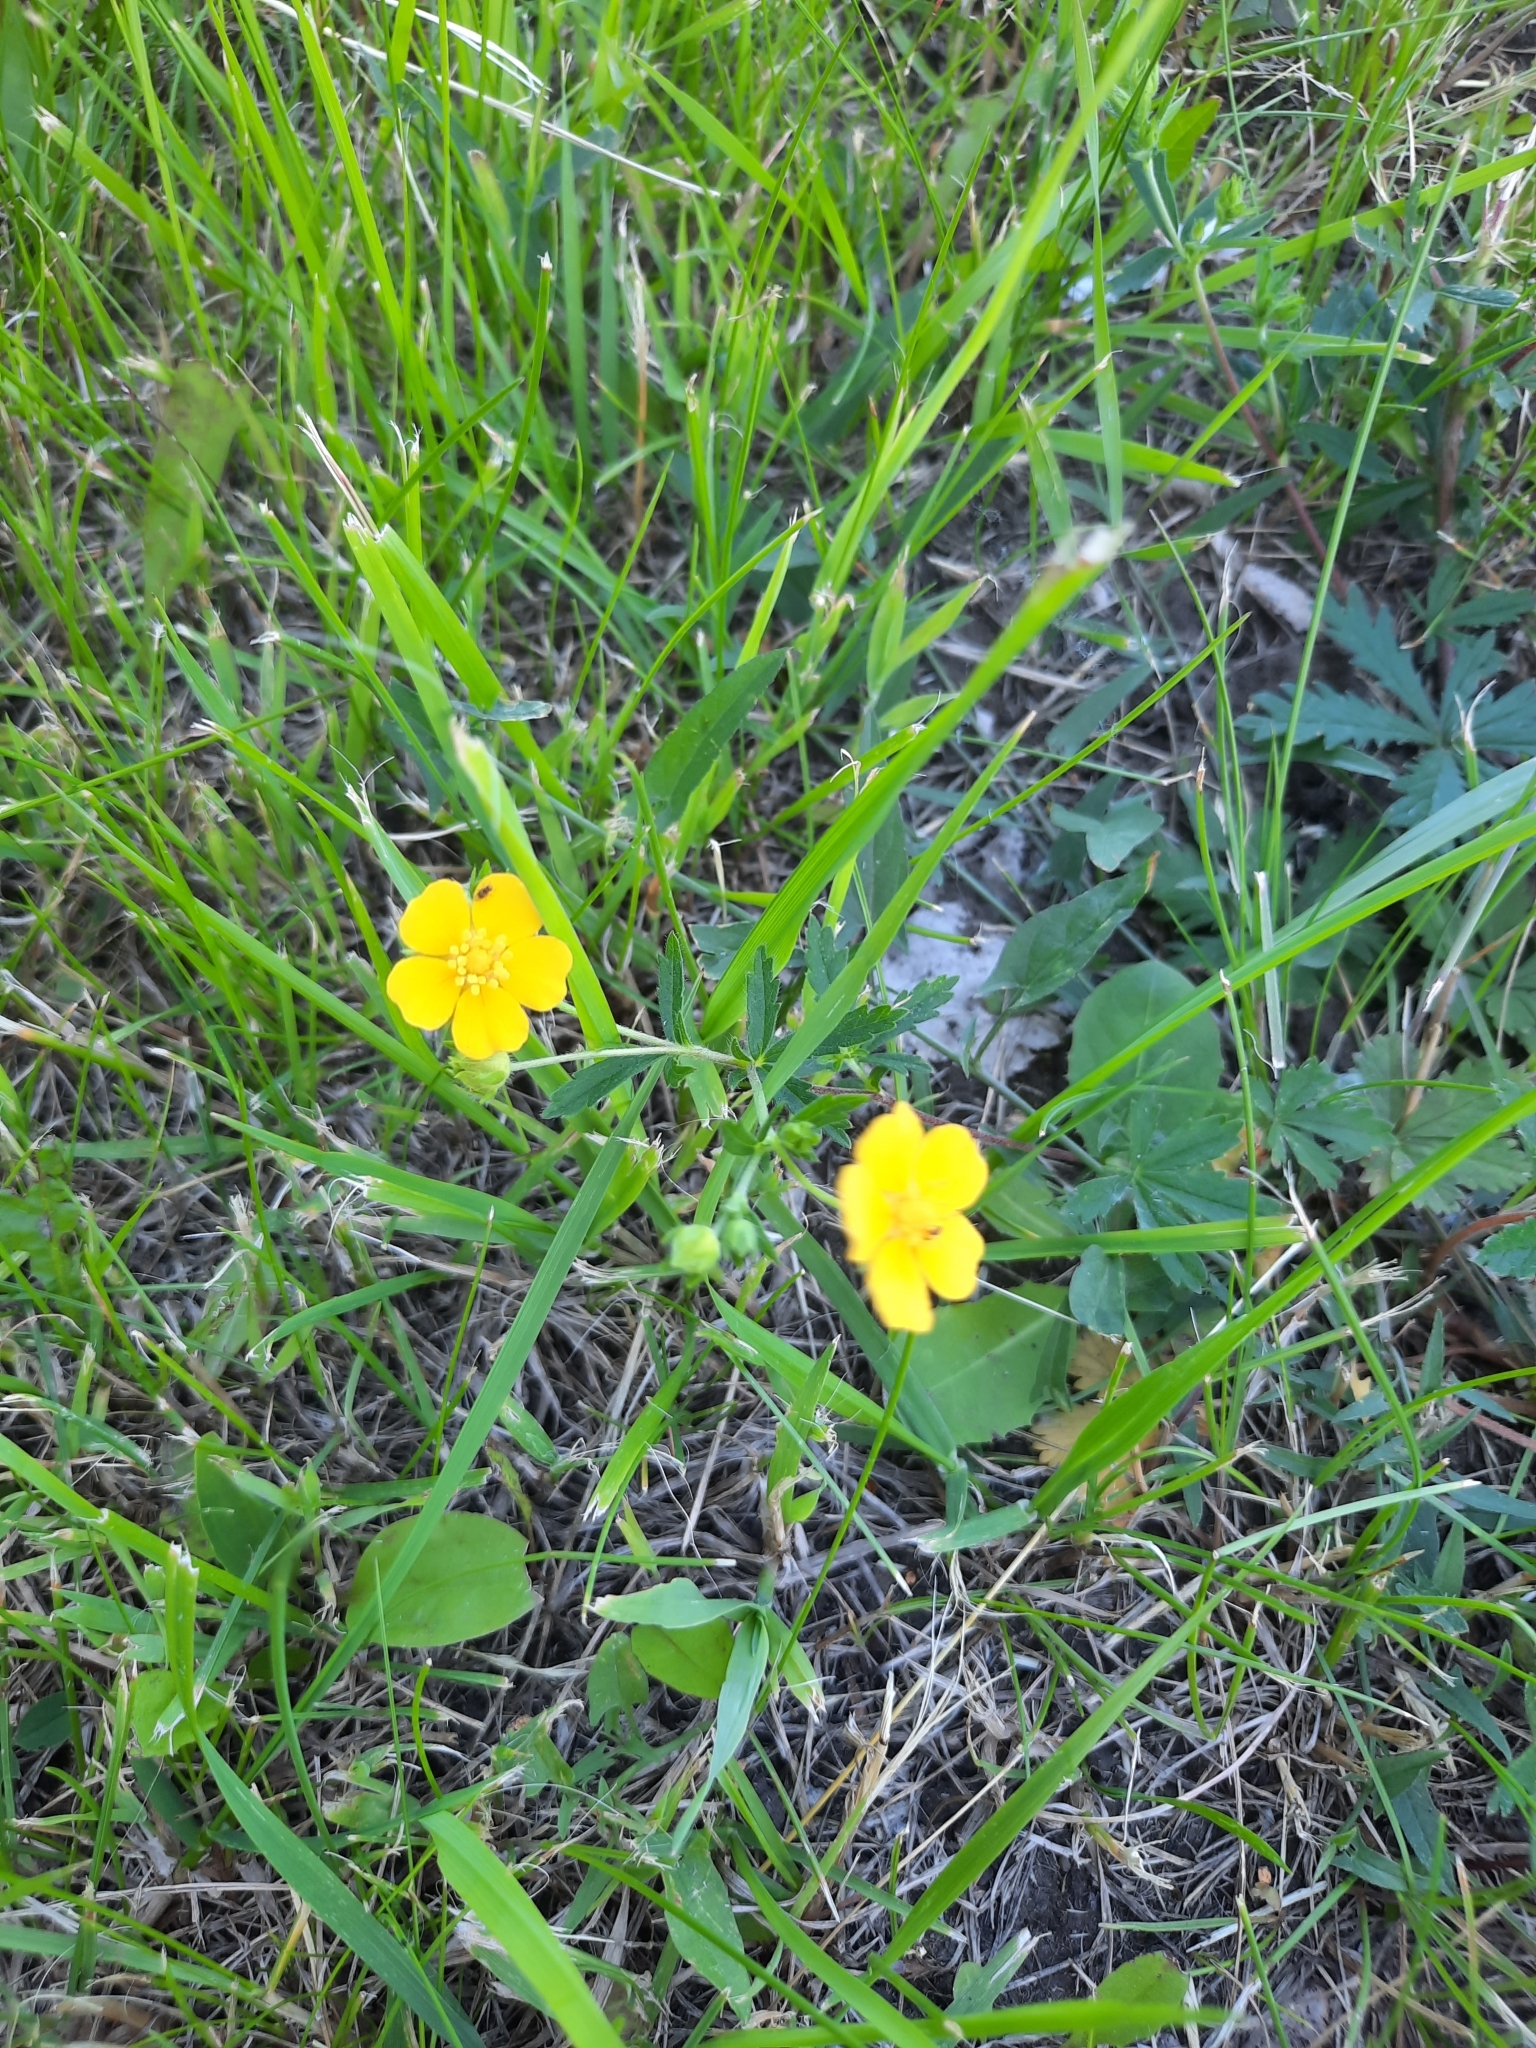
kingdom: Plantae
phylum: Tracheophyta
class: Magnoliopsida
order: Rosales
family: Rosaceae
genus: Potentilla
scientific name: Potentilla thuringiaca
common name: European cinquefoil
